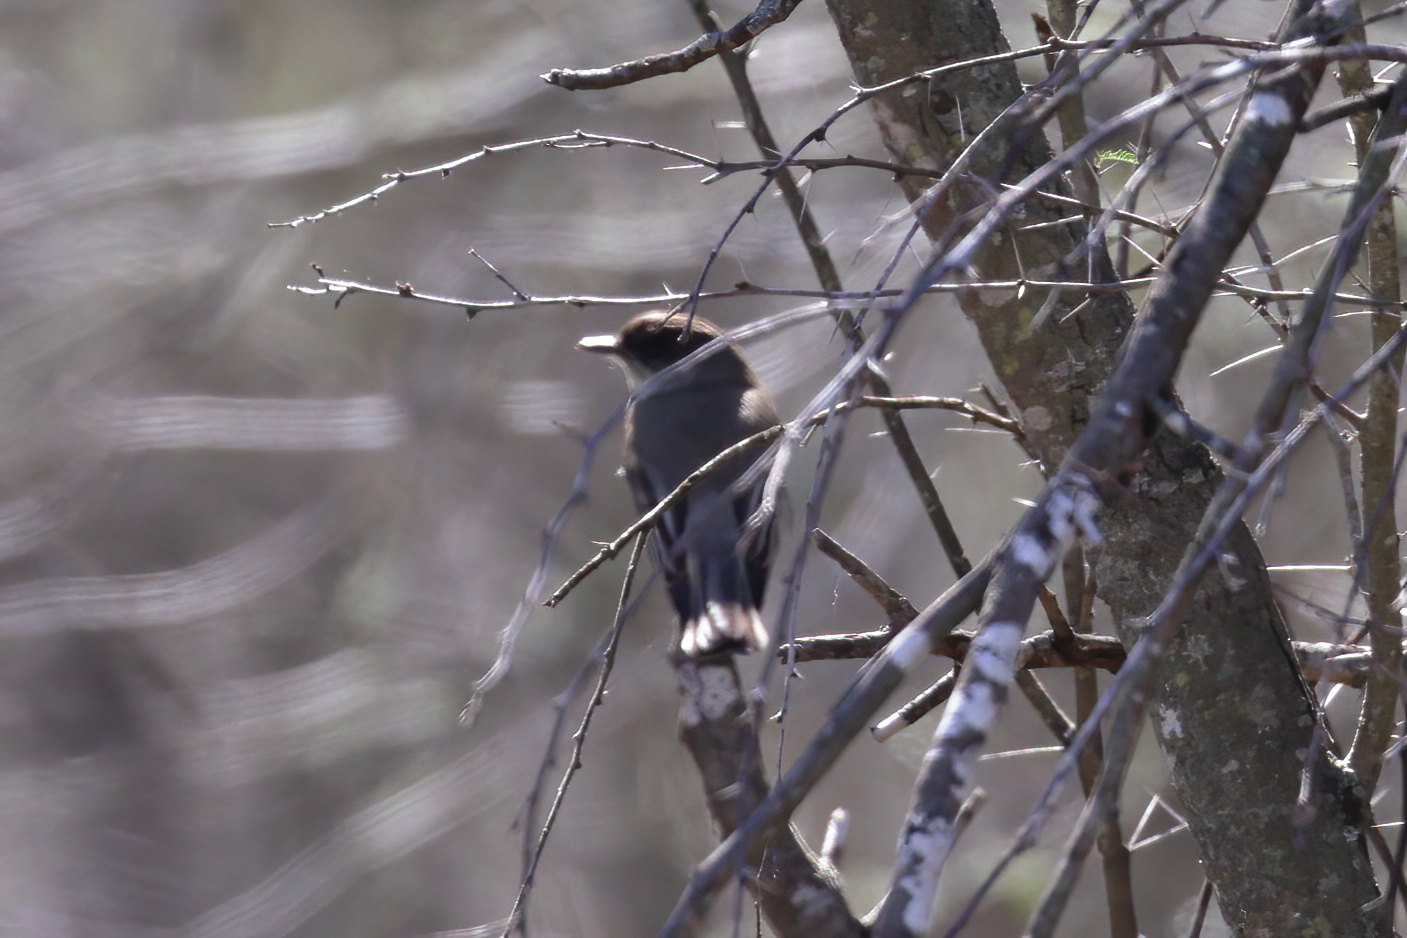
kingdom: Animalia
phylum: Chordata
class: Aves
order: Passeriformes
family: Tyrannidae
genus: Sayornis
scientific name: Sayornis phoebe
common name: Eastern phoebe
